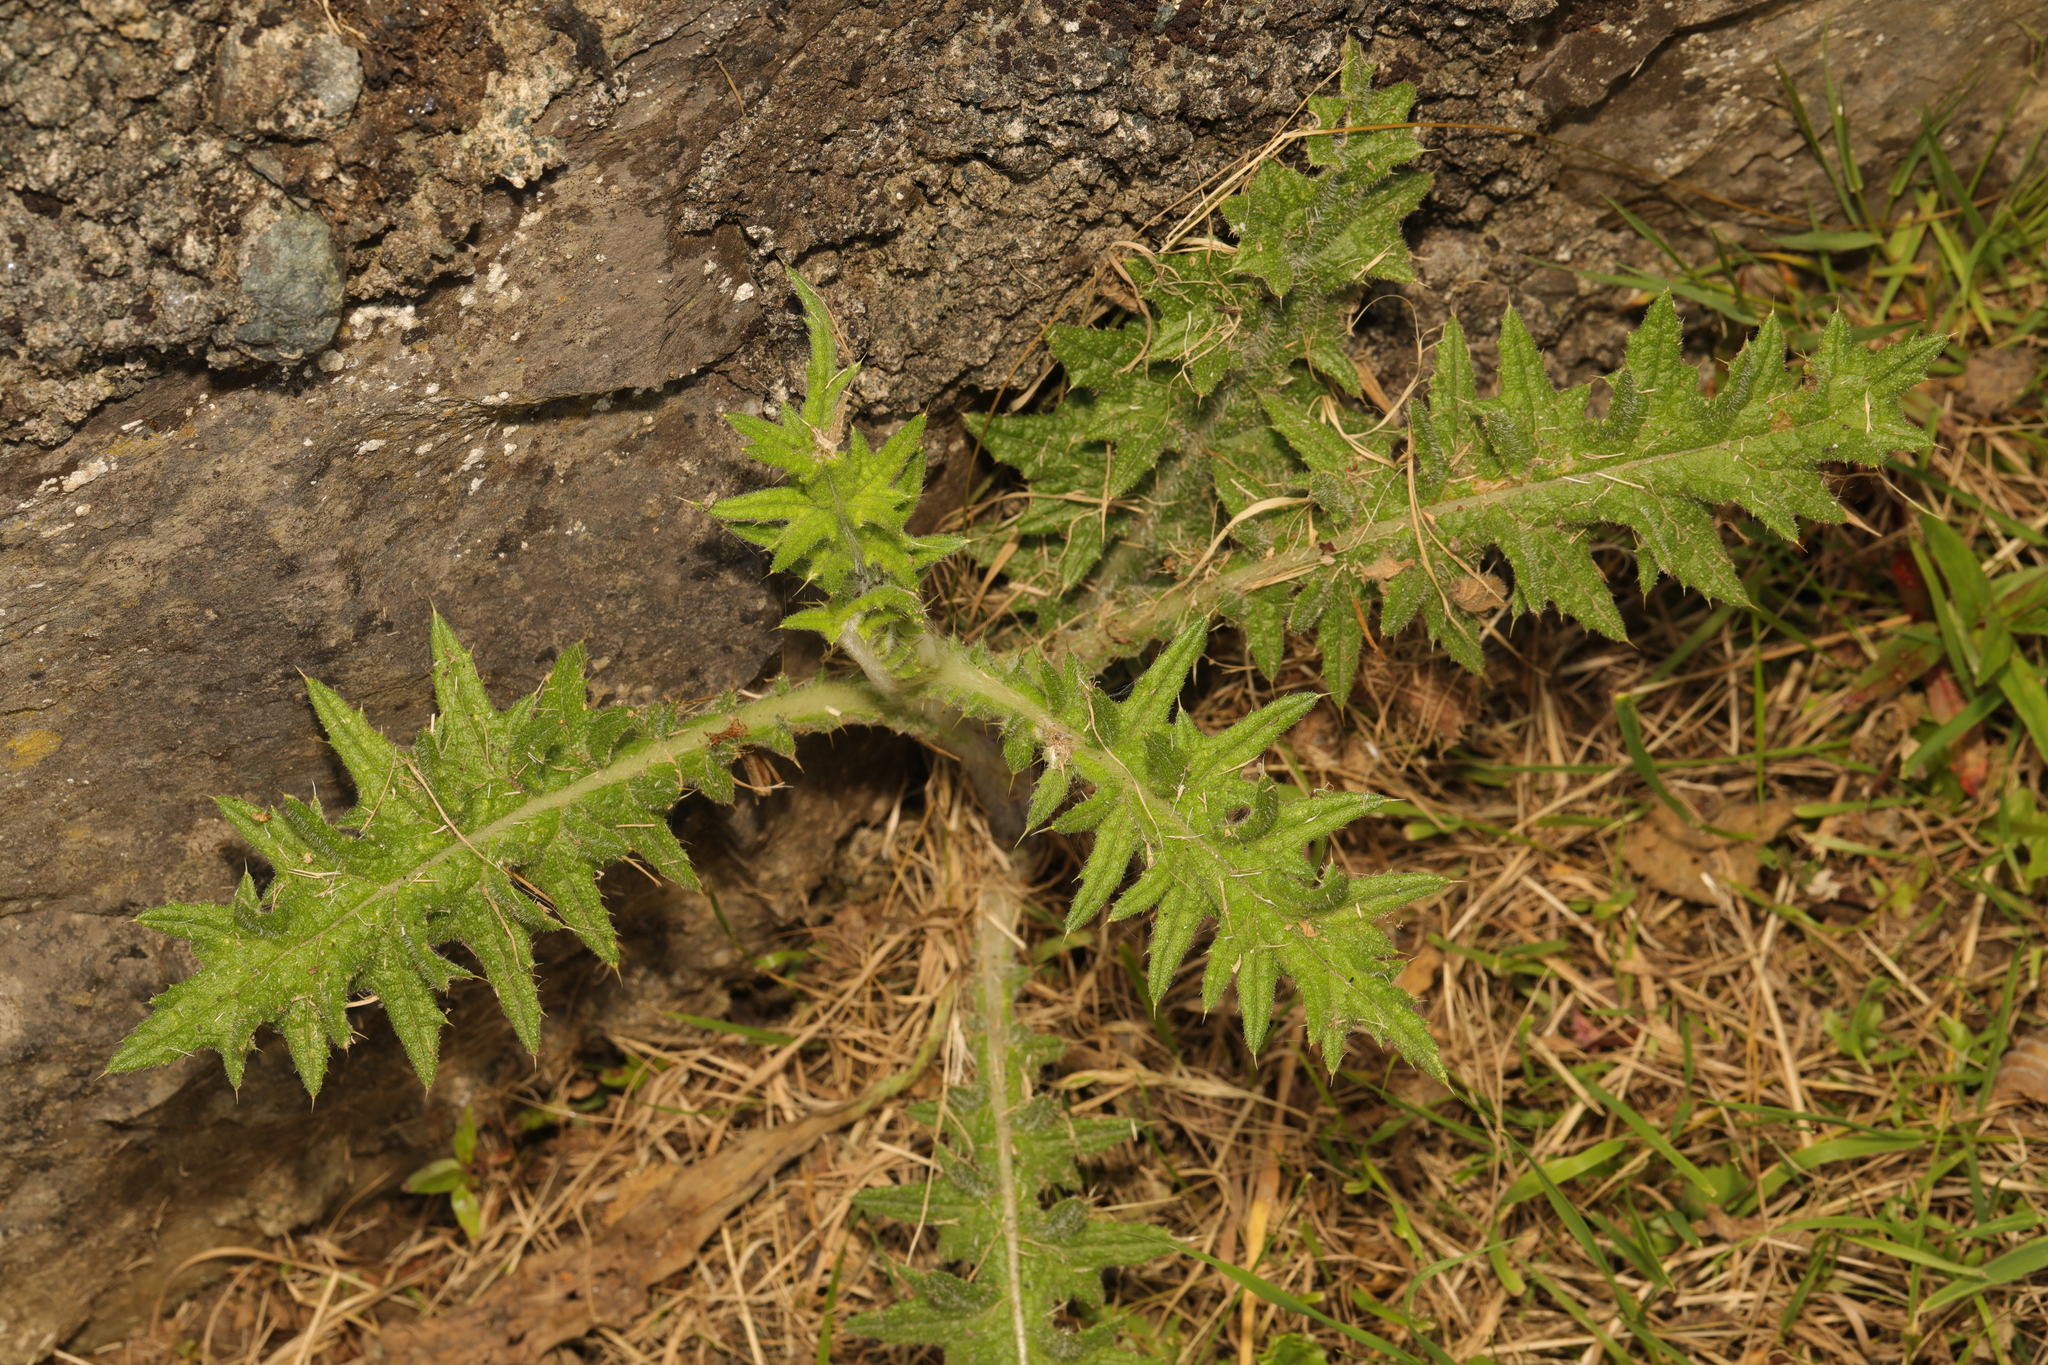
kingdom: Plantae
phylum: Tracheophyta
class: Magnoliopsida
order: Asterales
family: Asteraceae
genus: Cirsium
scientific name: Cirsium vulgare
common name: Bull thistle
